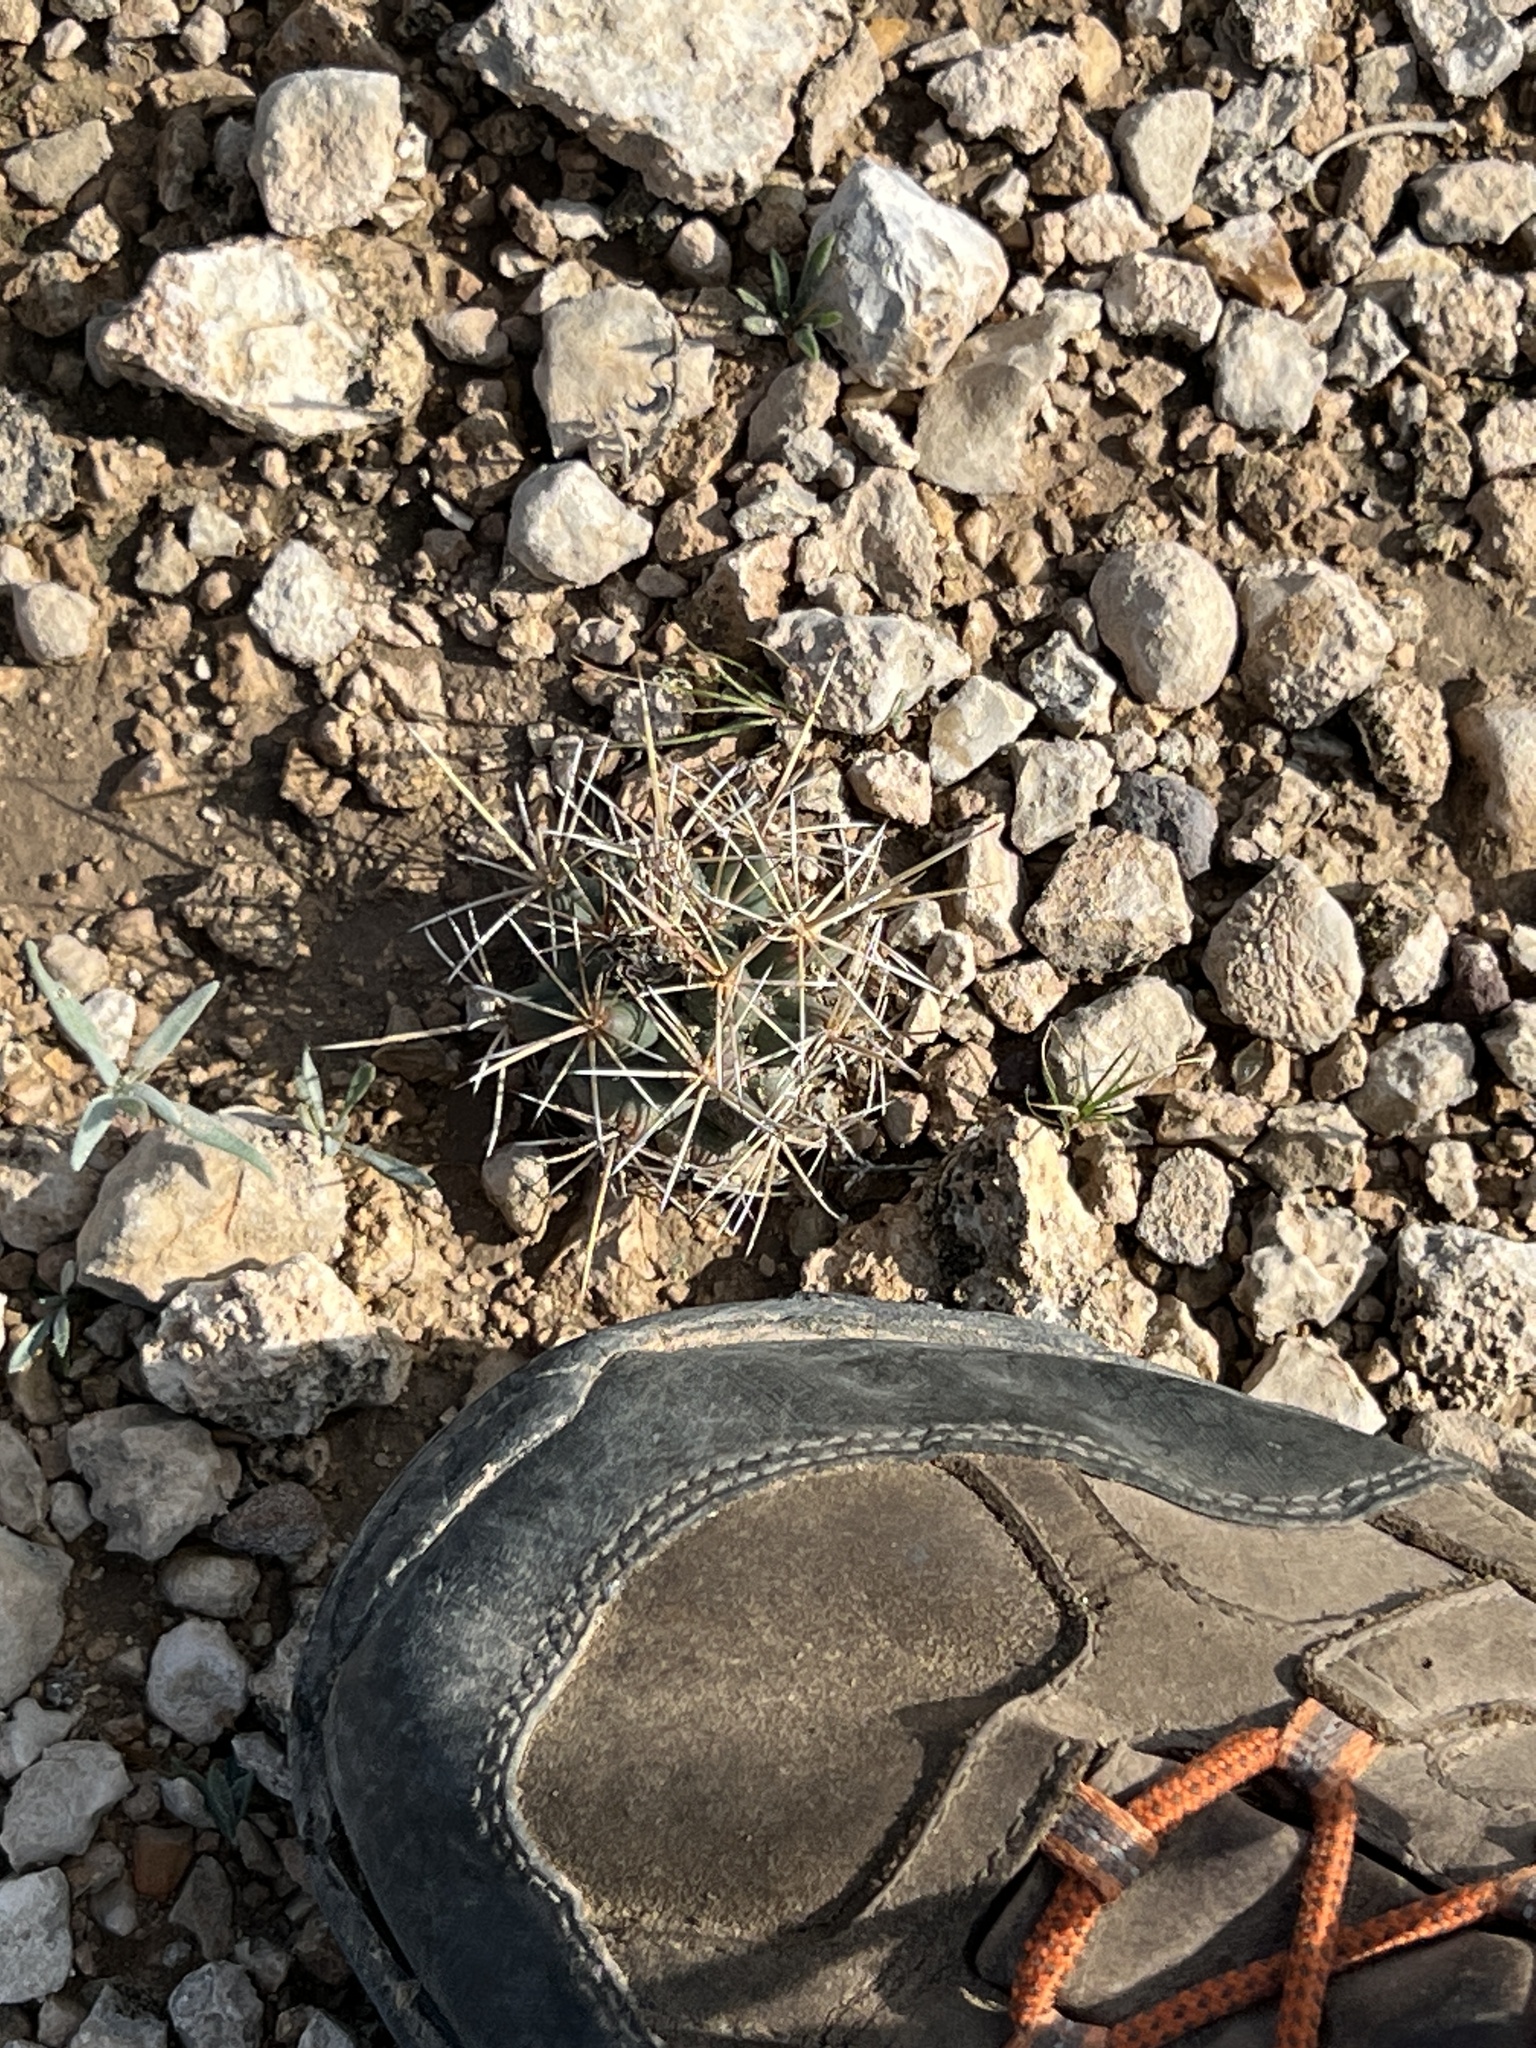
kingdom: Plantae
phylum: Tracheophyta
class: Magnoliopsida
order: Caryophyllales
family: Cactaceae
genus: Coryphantha
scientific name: Coryphantha robustispina
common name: Pima pineapple cactus
